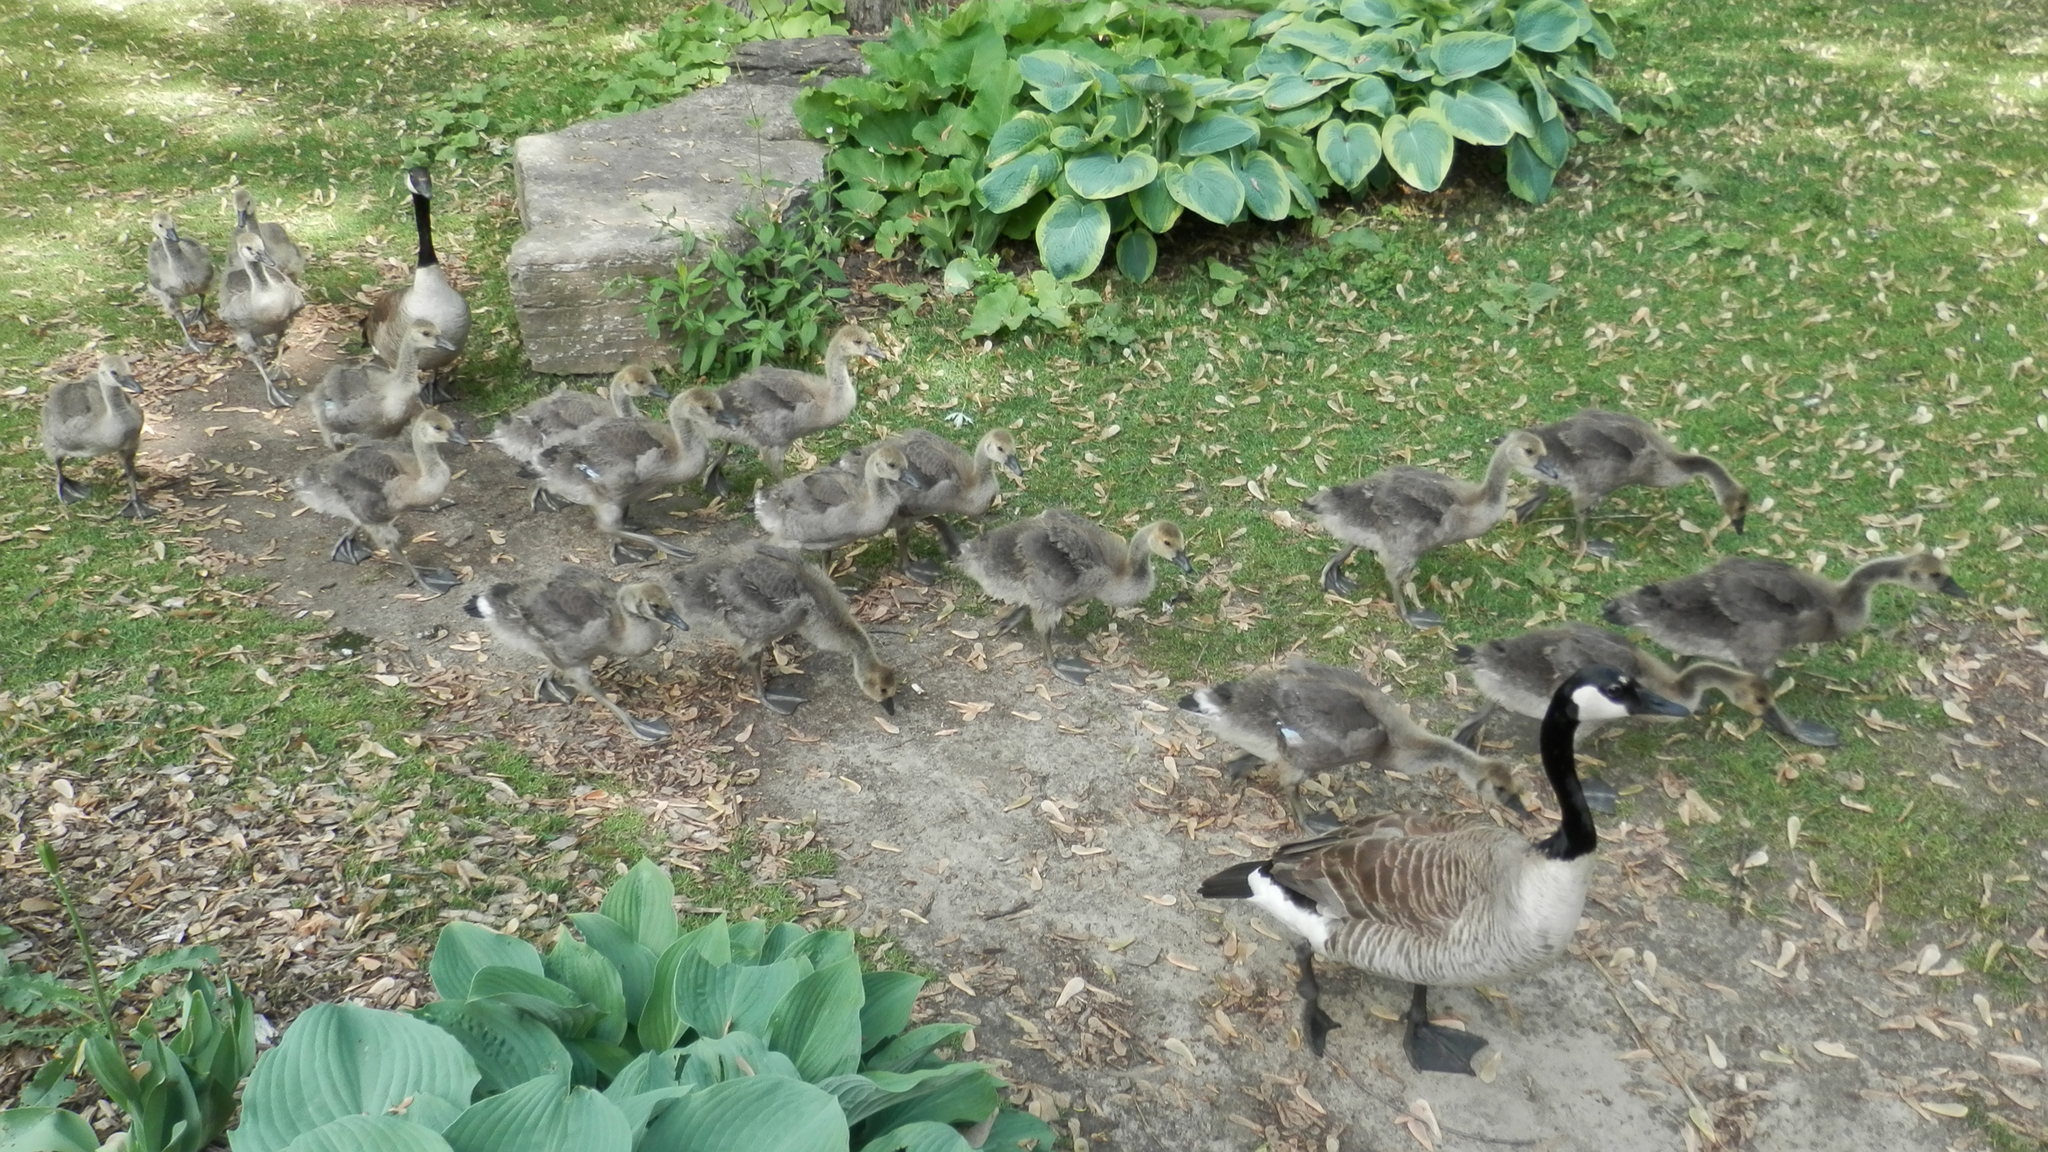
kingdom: Animalia
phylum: Chordata
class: Aves
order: Anseriformes
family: Anatidae
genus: Branta
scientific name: Branta canadensis
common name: Canada goose
